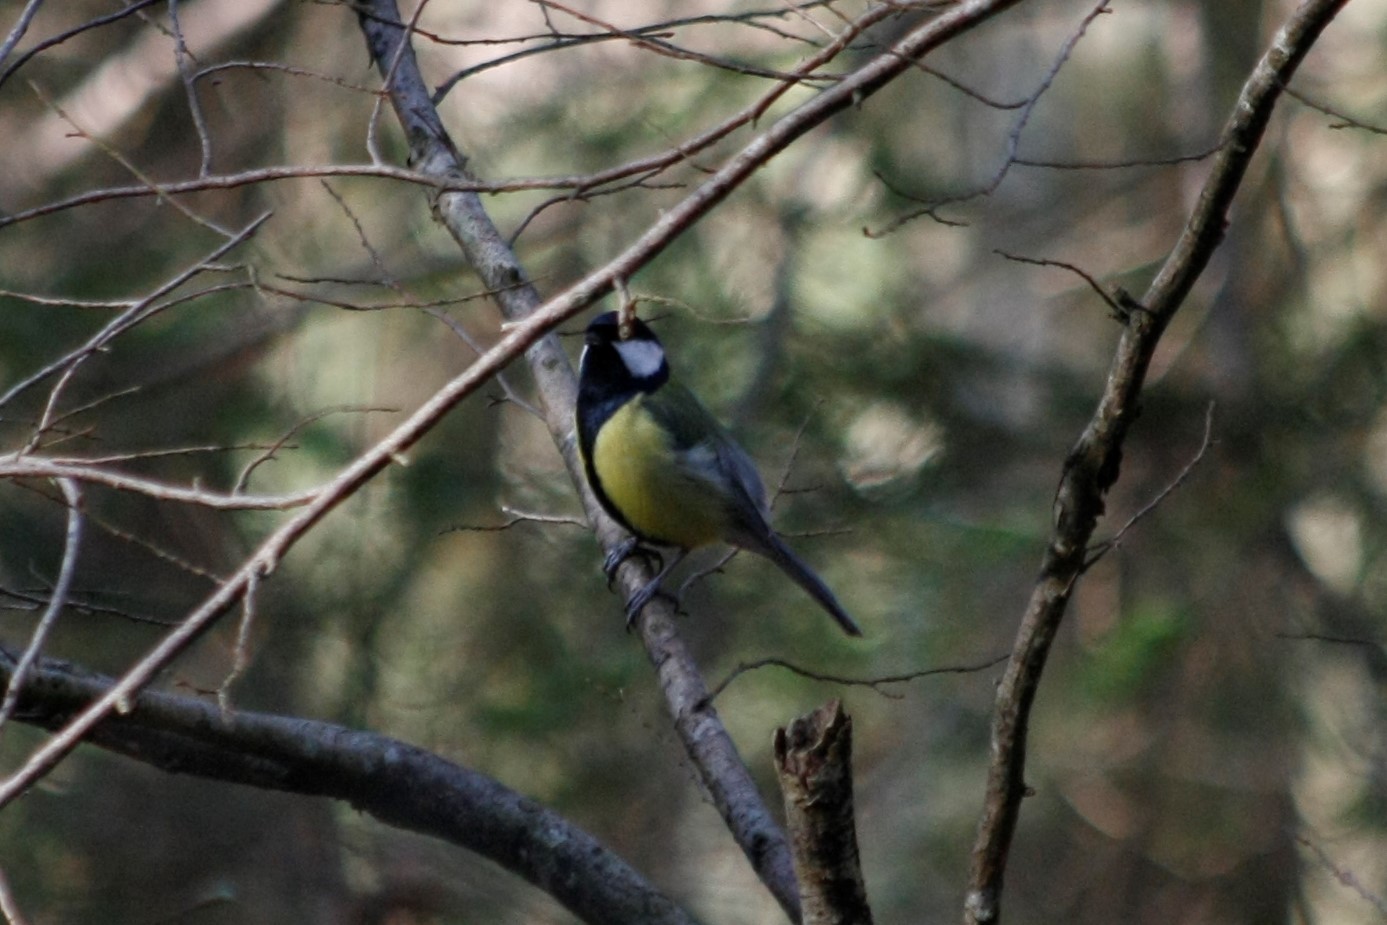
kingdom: Animalia
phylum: Chordata
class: Aves
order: Passeriformes
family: Paridae
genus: Parus
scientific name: Parus major
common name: Great tit
